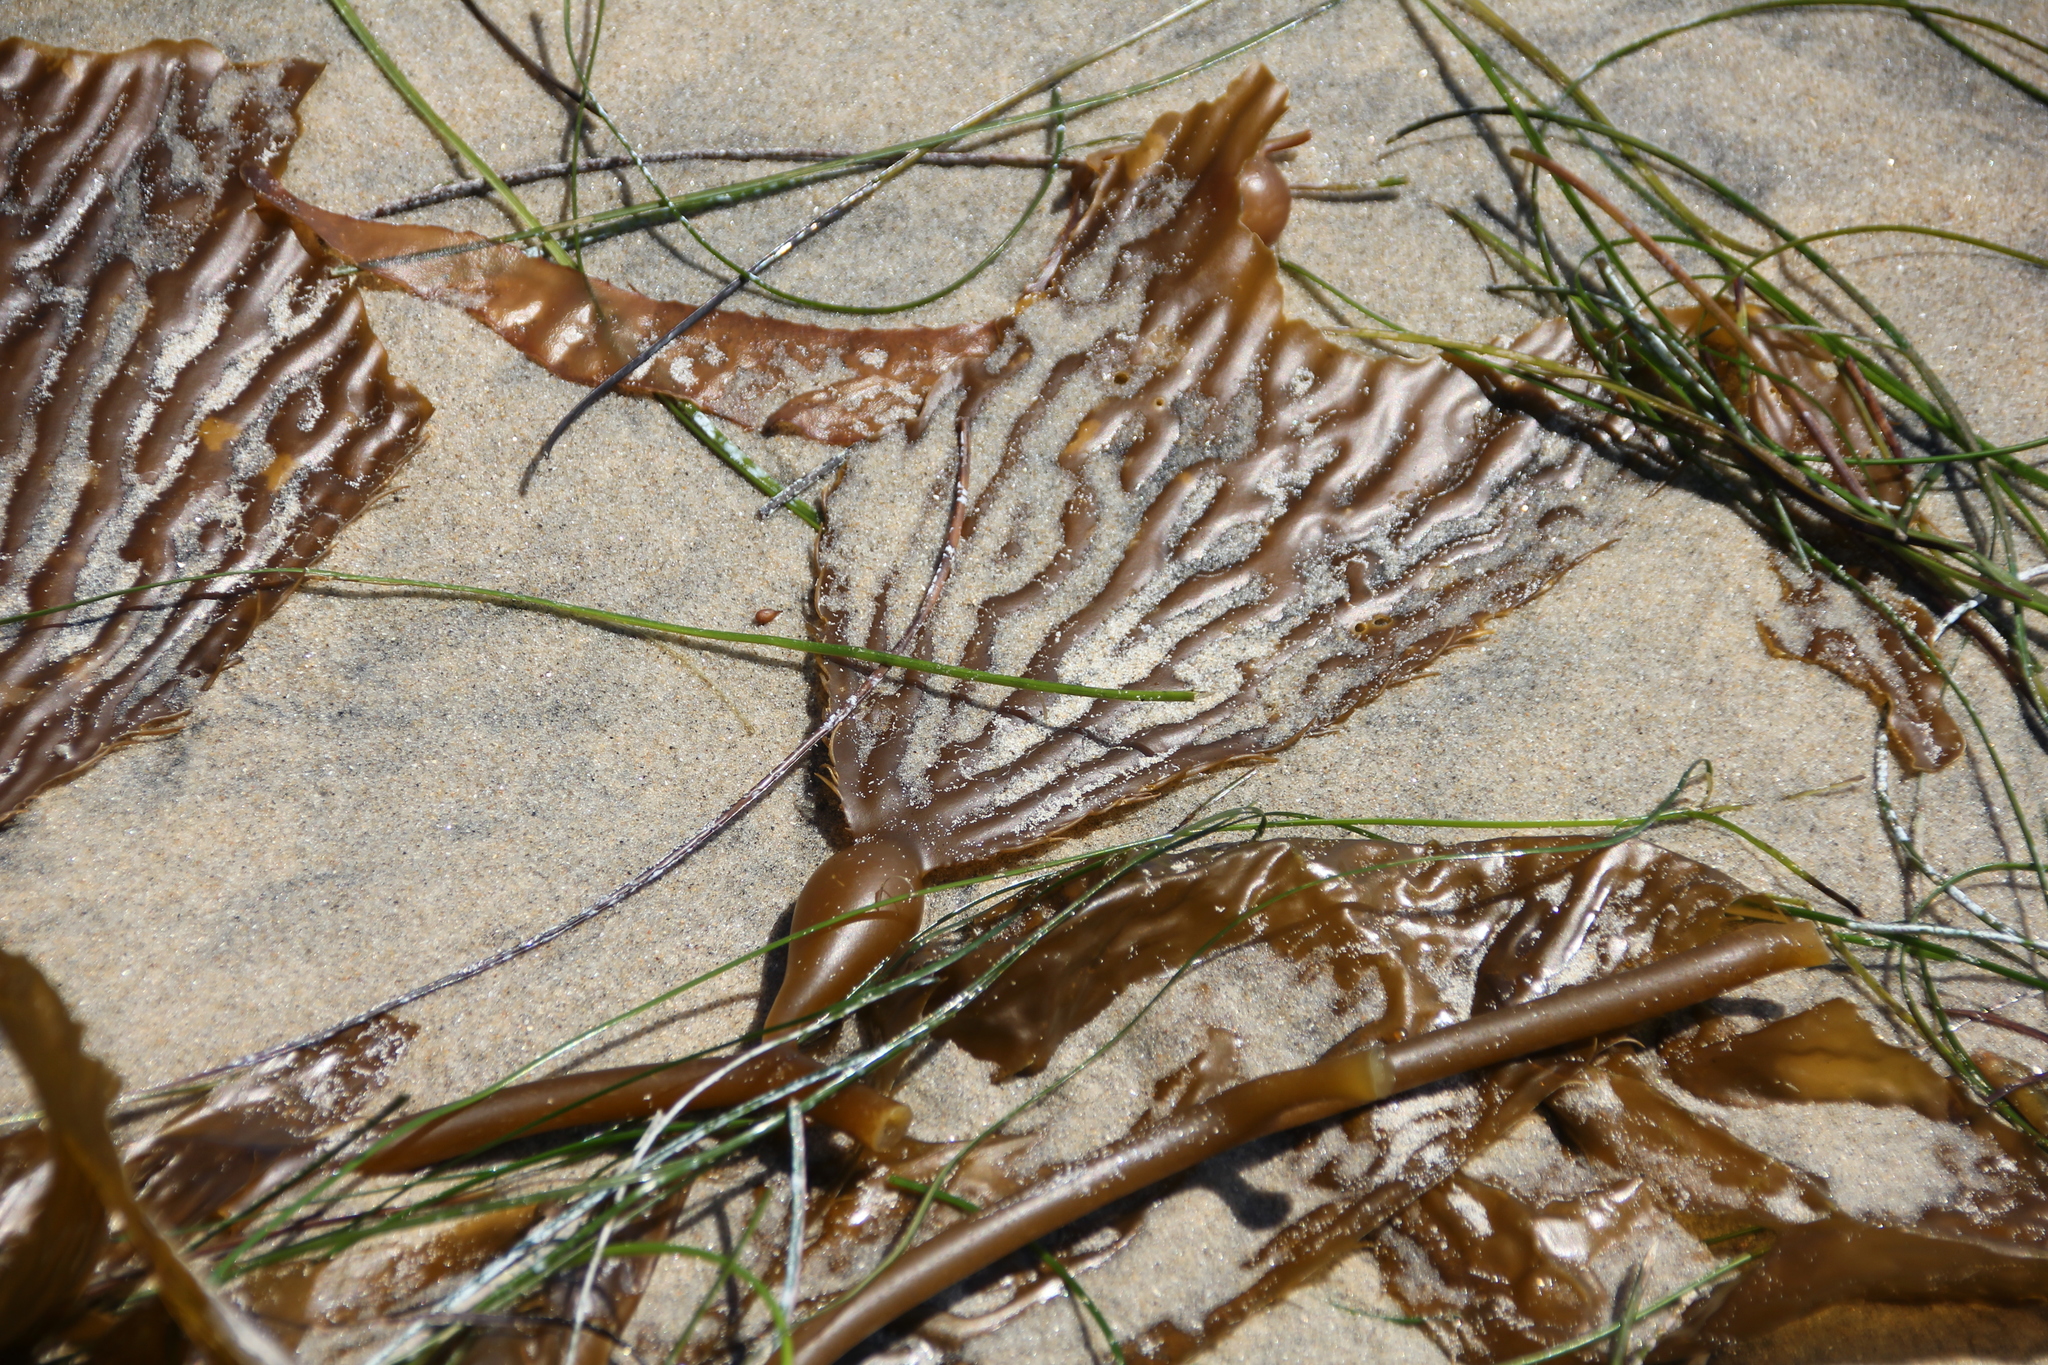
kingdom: Chromista
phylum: Ochrophyta
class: Phaeophyceae
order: Laminariales
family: Laminariaceae
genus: Macrocystis
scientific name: Macrocystis pyrifera
